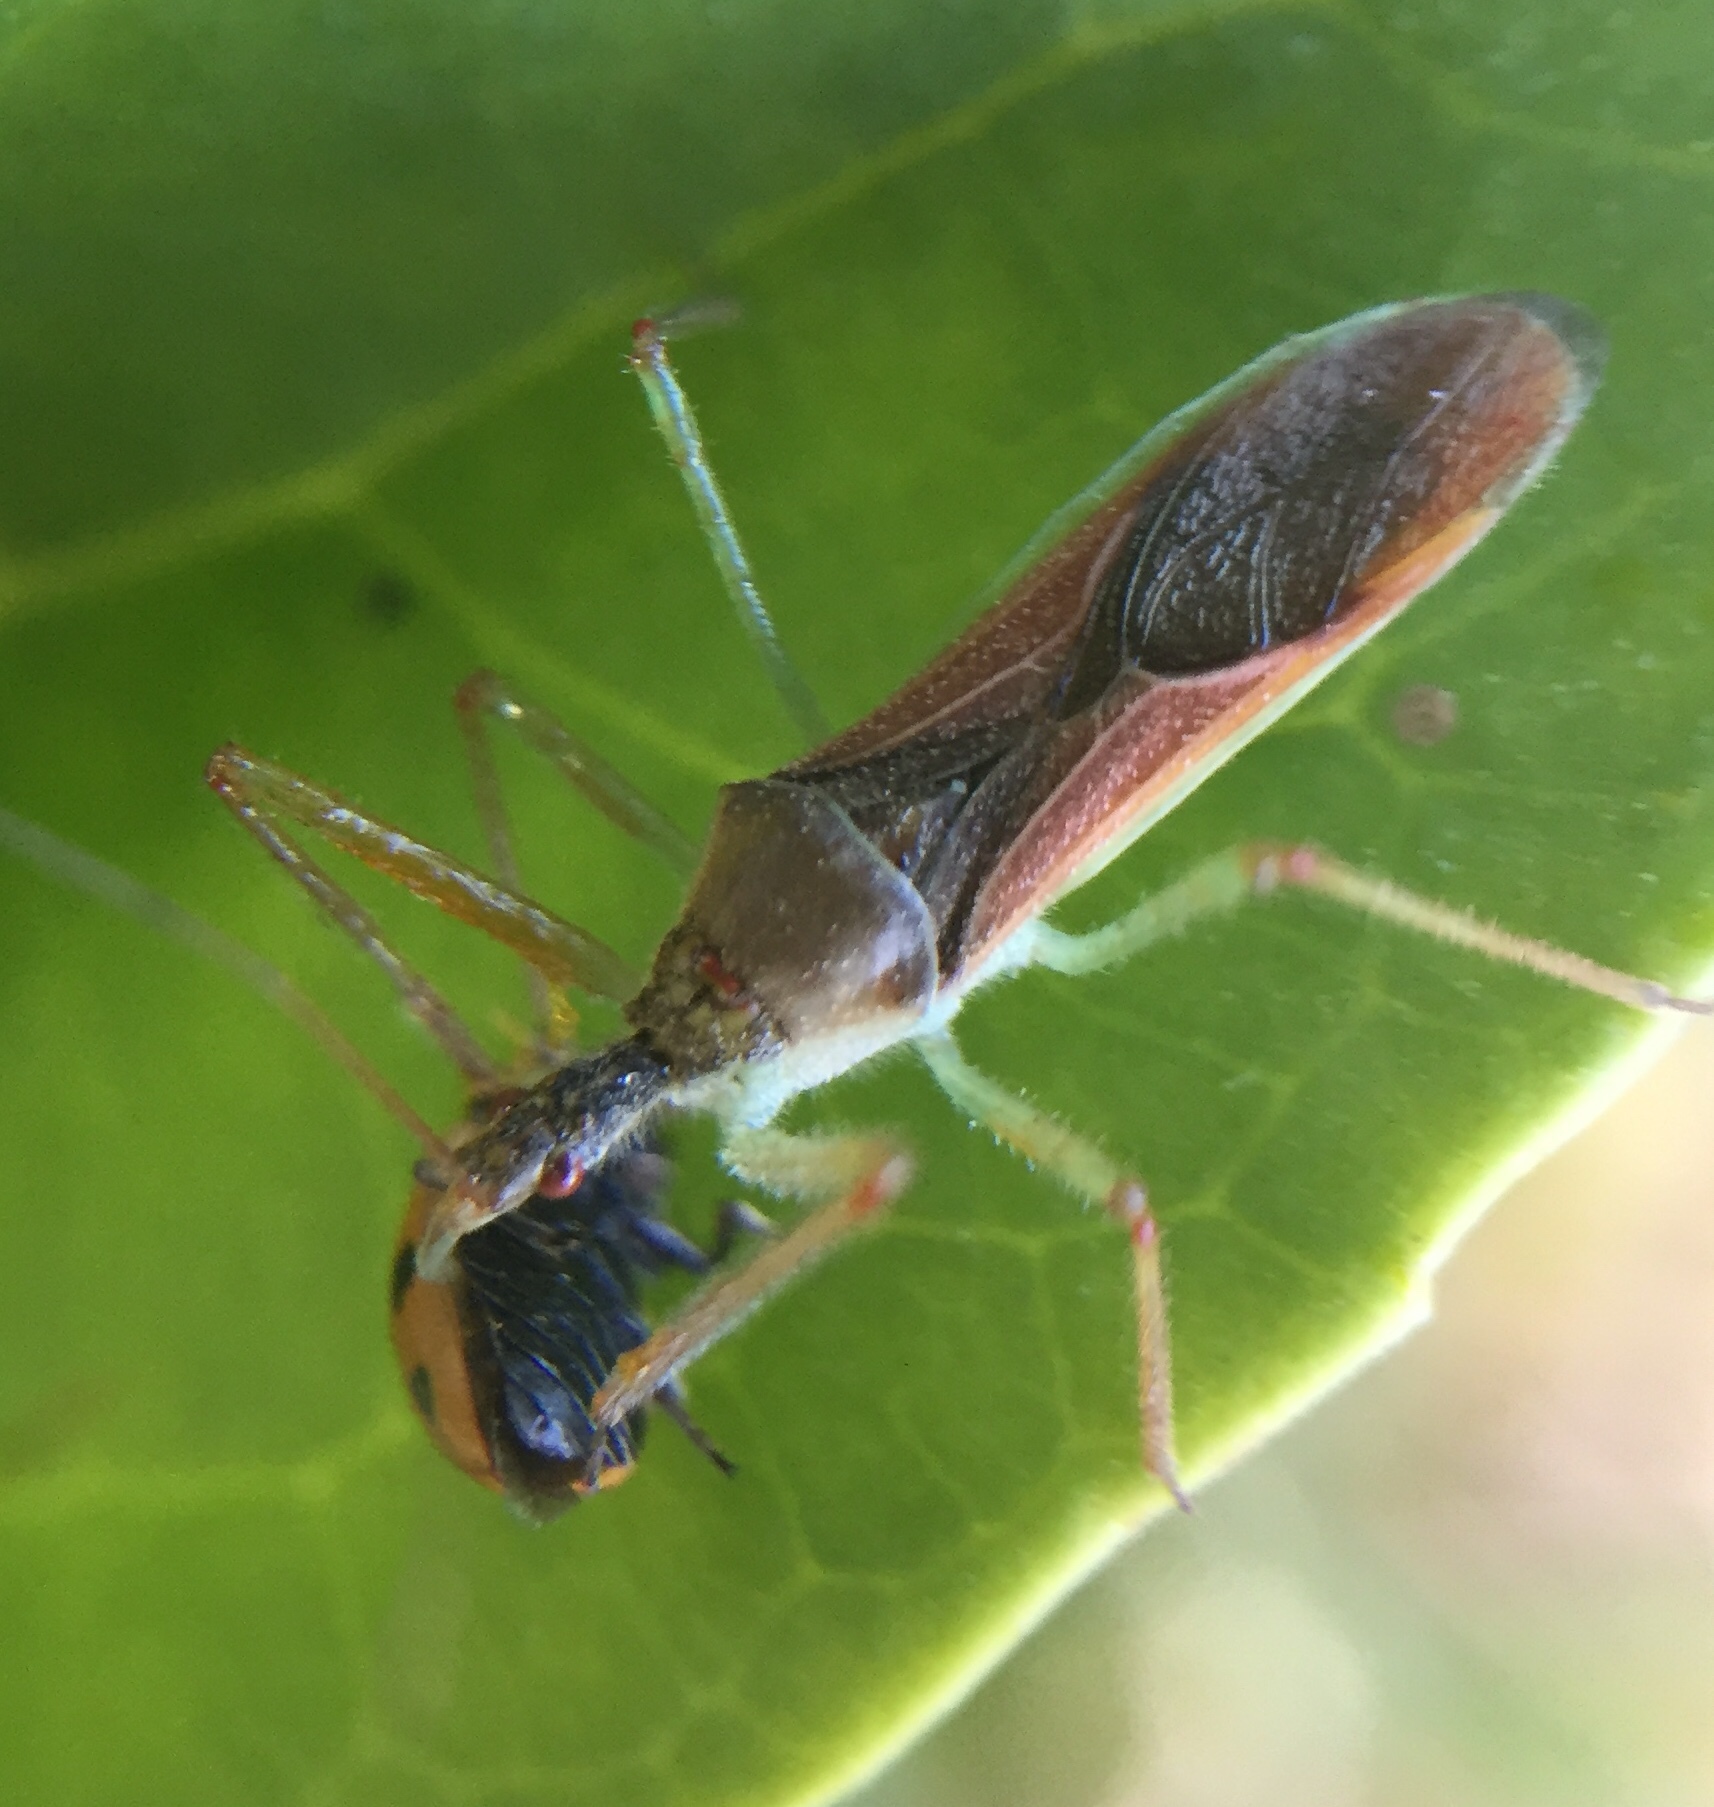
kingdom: Animalia
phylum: Arthropoda
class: Insecta
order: Hemiptera
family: Reduviidae
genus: Zelus
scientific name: Zelus renardii
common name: Assassin bug
